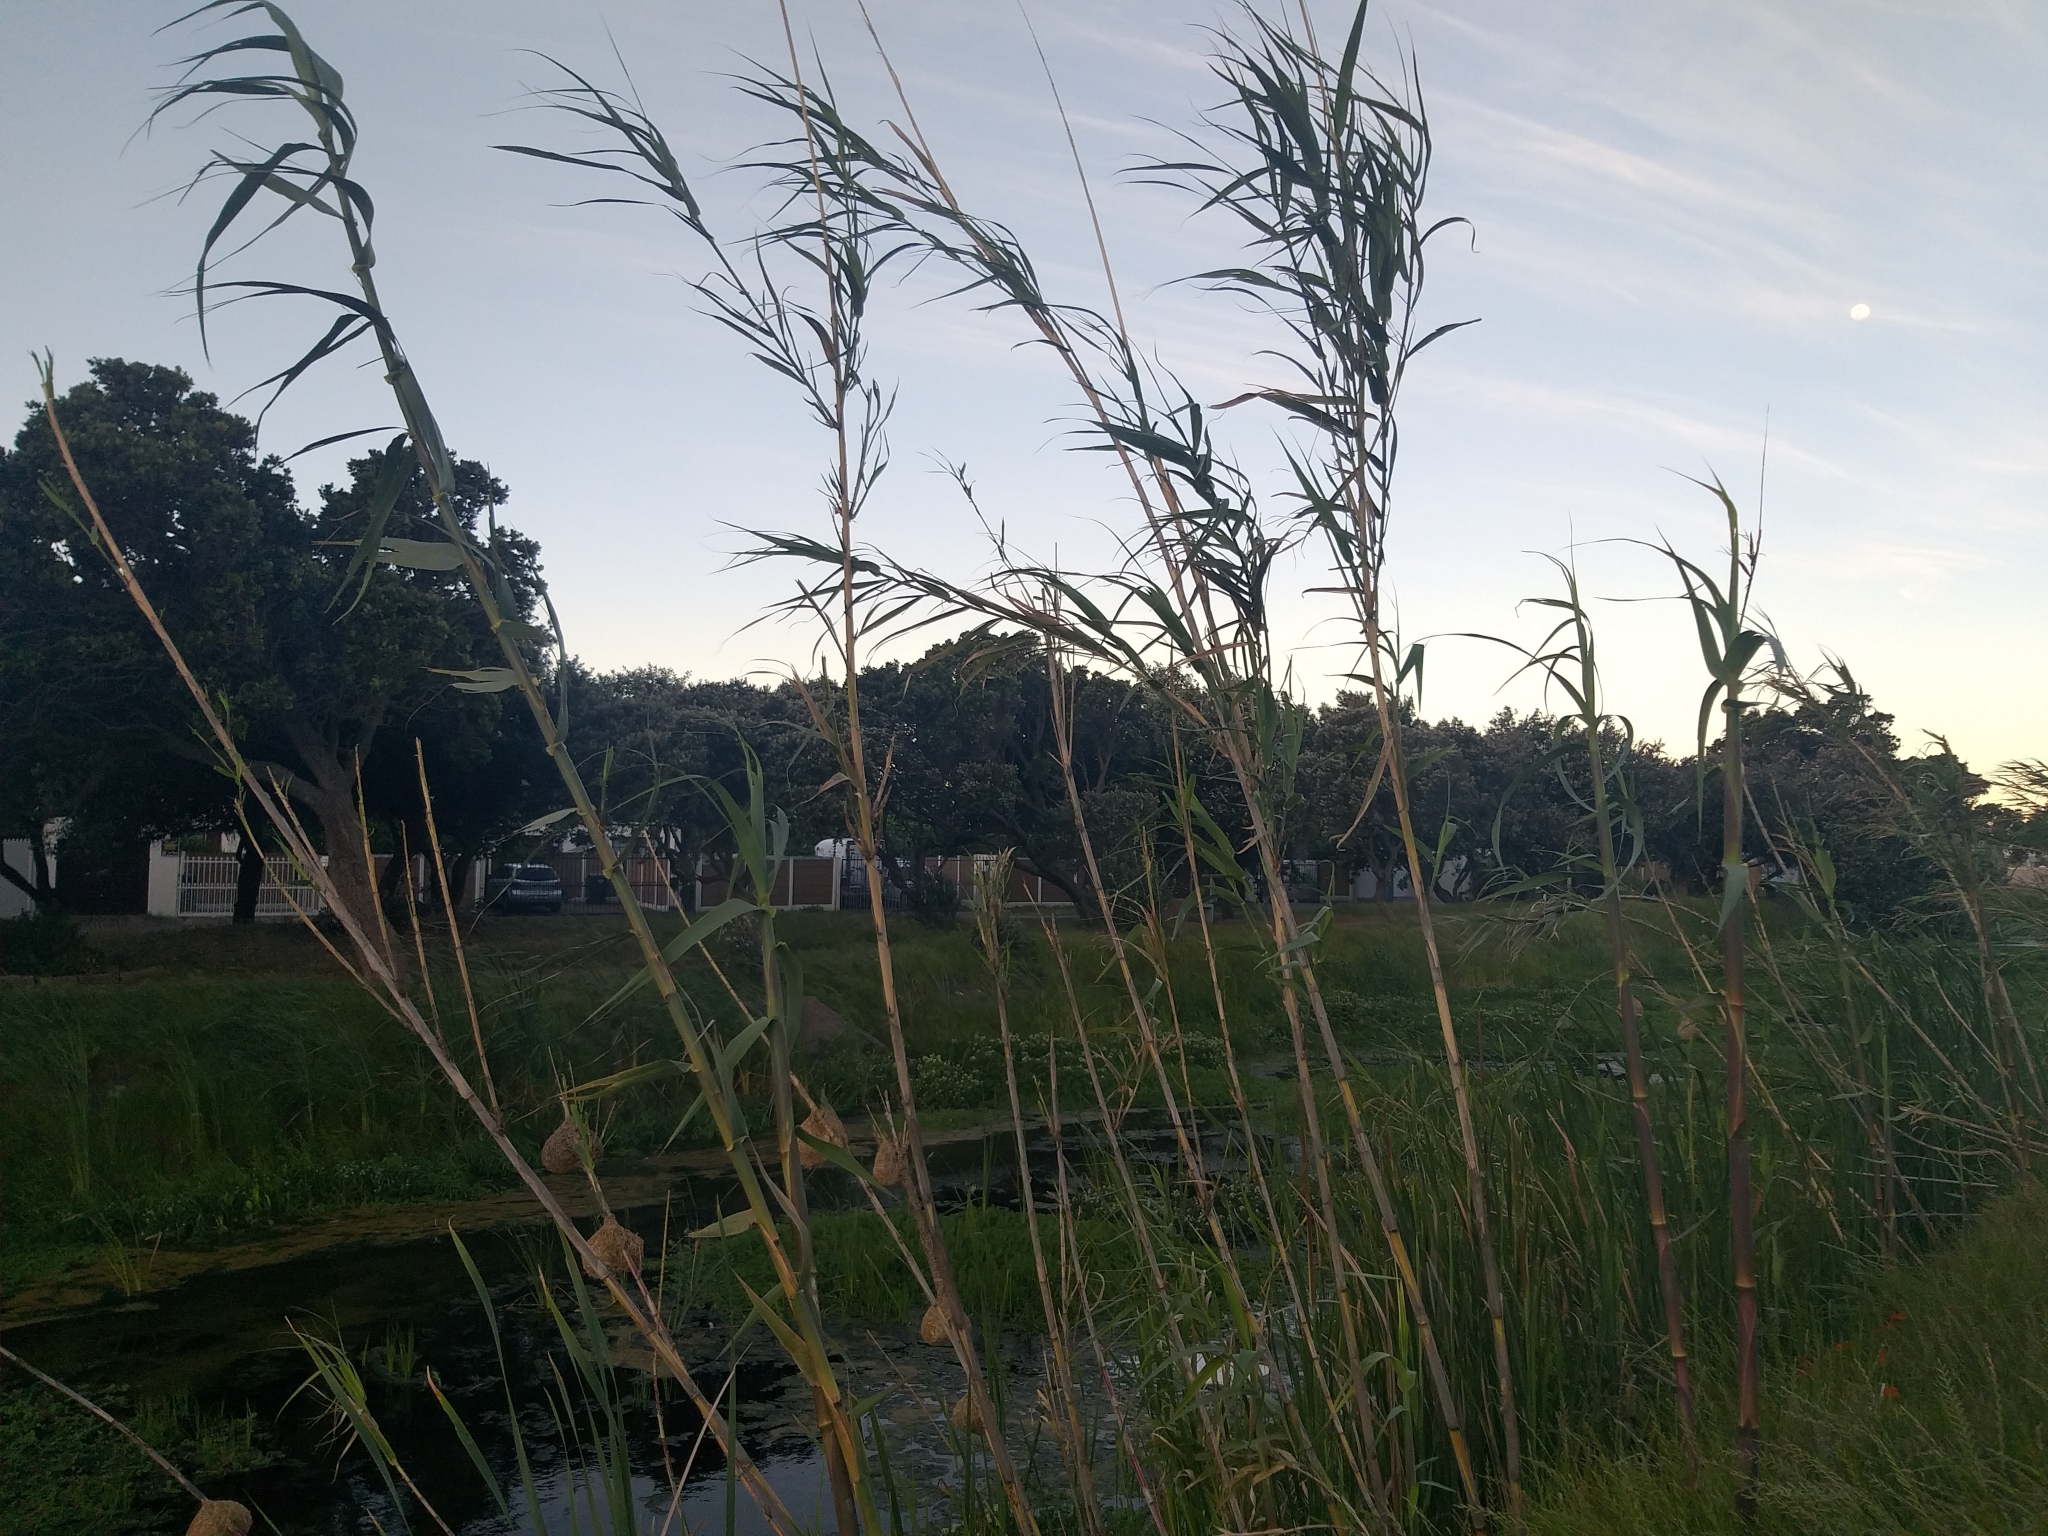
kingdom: Plantae
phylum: Tracheophyta
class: Liliopsida
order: Poales
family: Poaceae
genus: Arundo
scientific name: Arundo donax
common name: Giant reed
